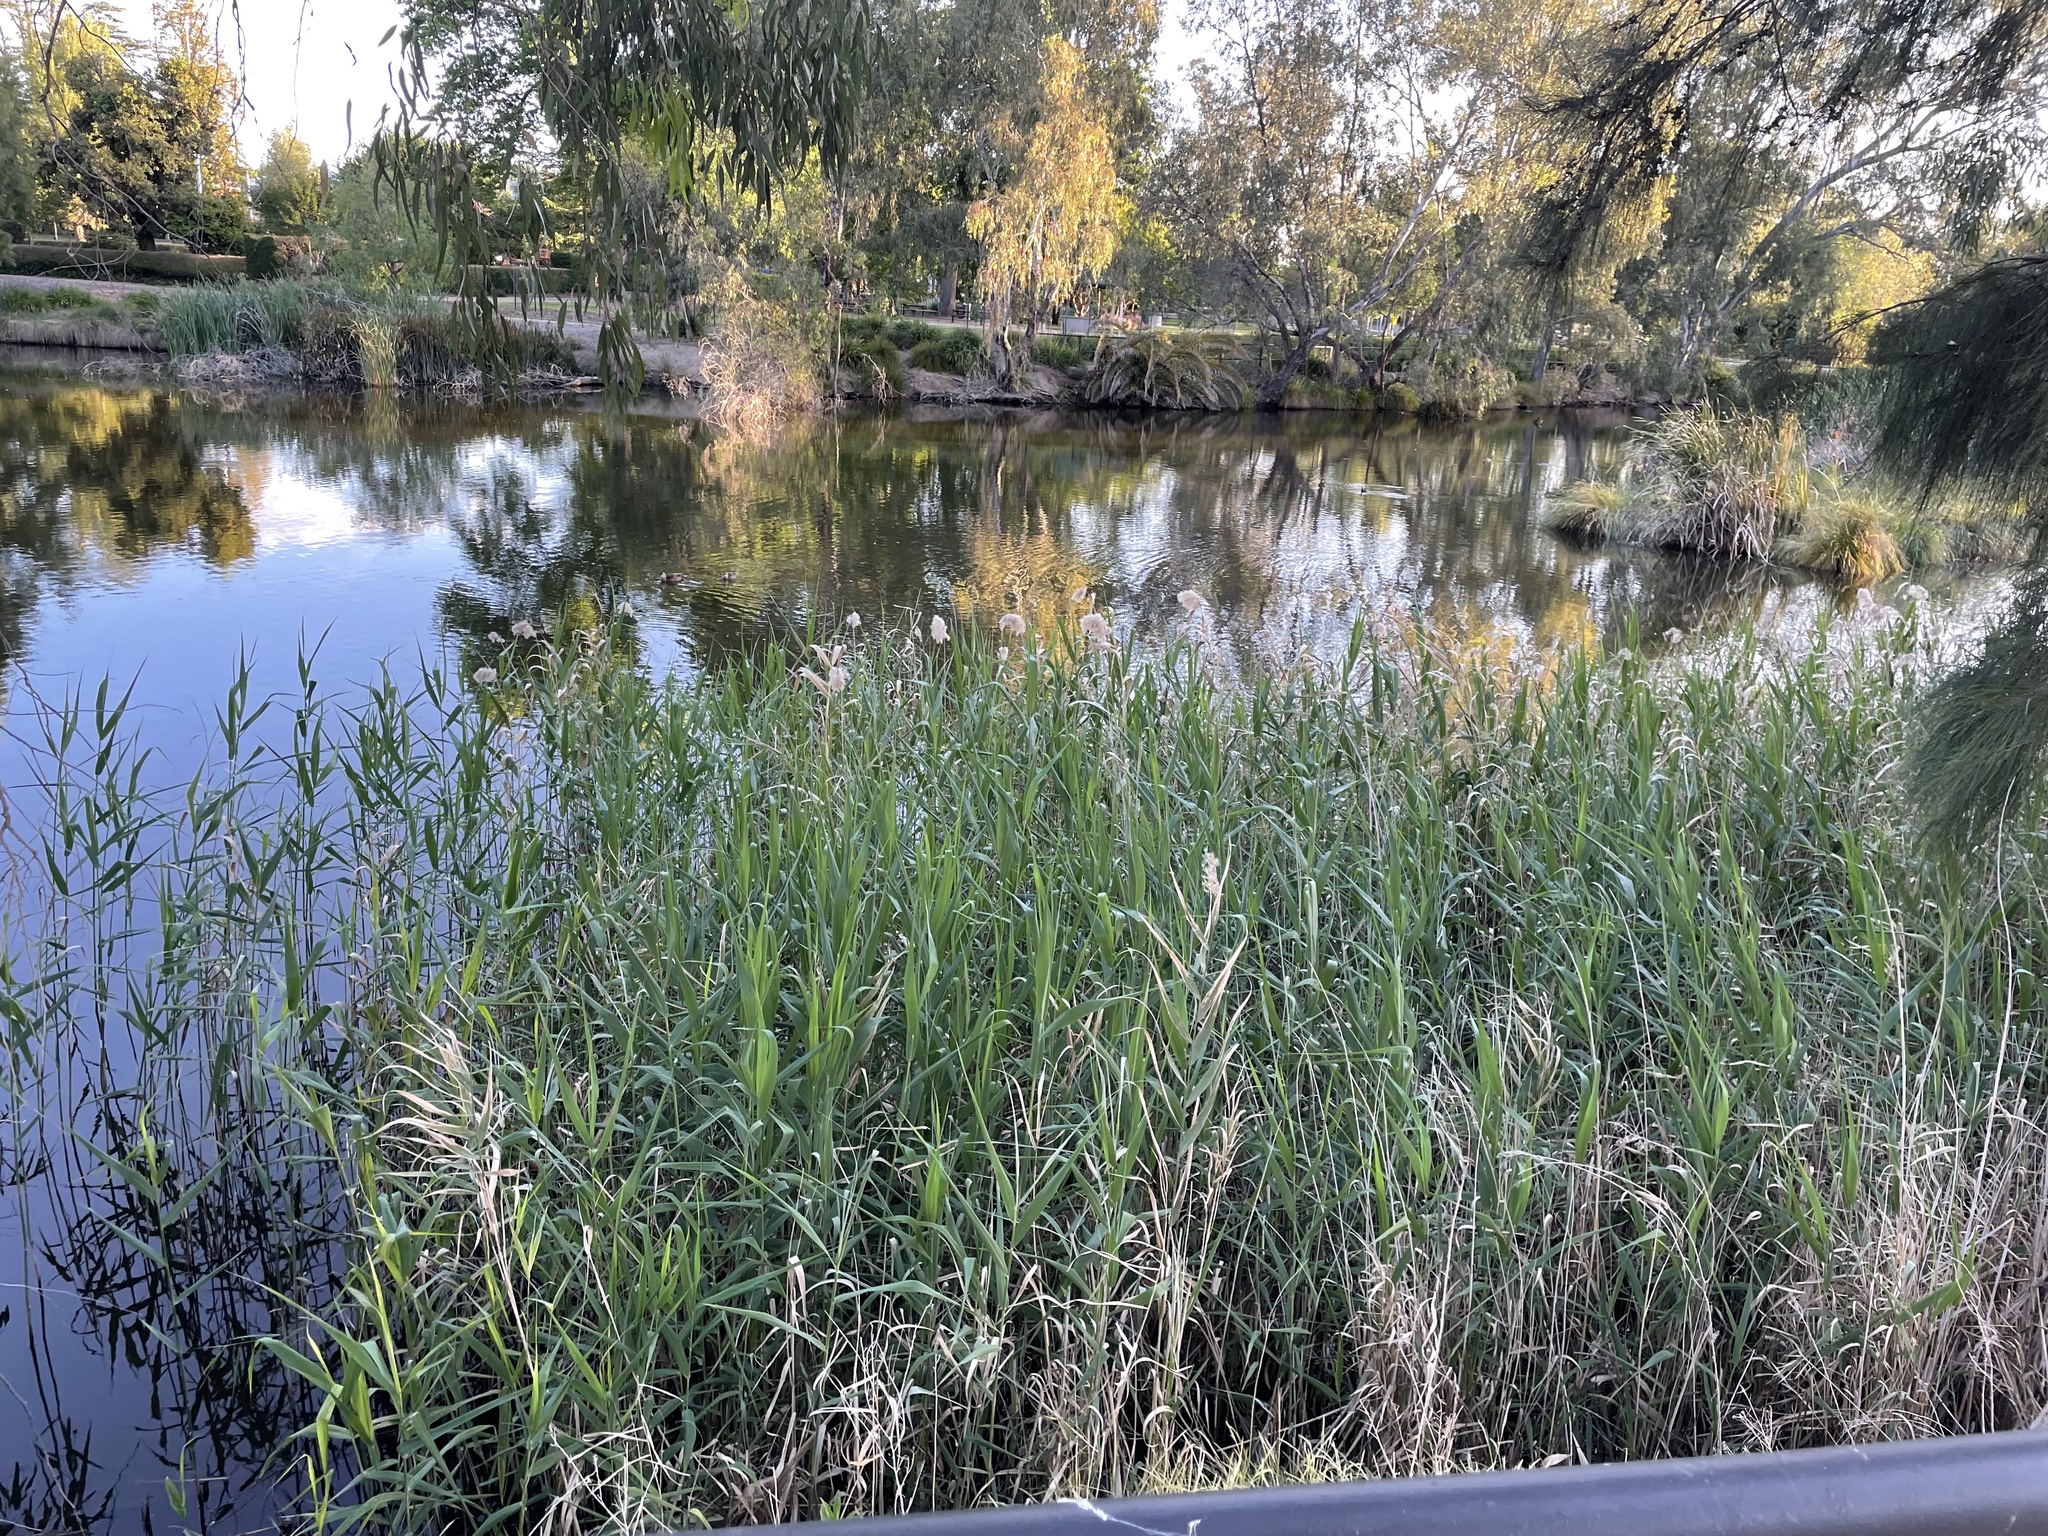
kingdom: Plantae
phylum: Tracheophyta
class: Liliopsida
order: Poales
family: Poaceae
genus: Phragmites
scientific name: Phragmites australis
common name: Common reed
